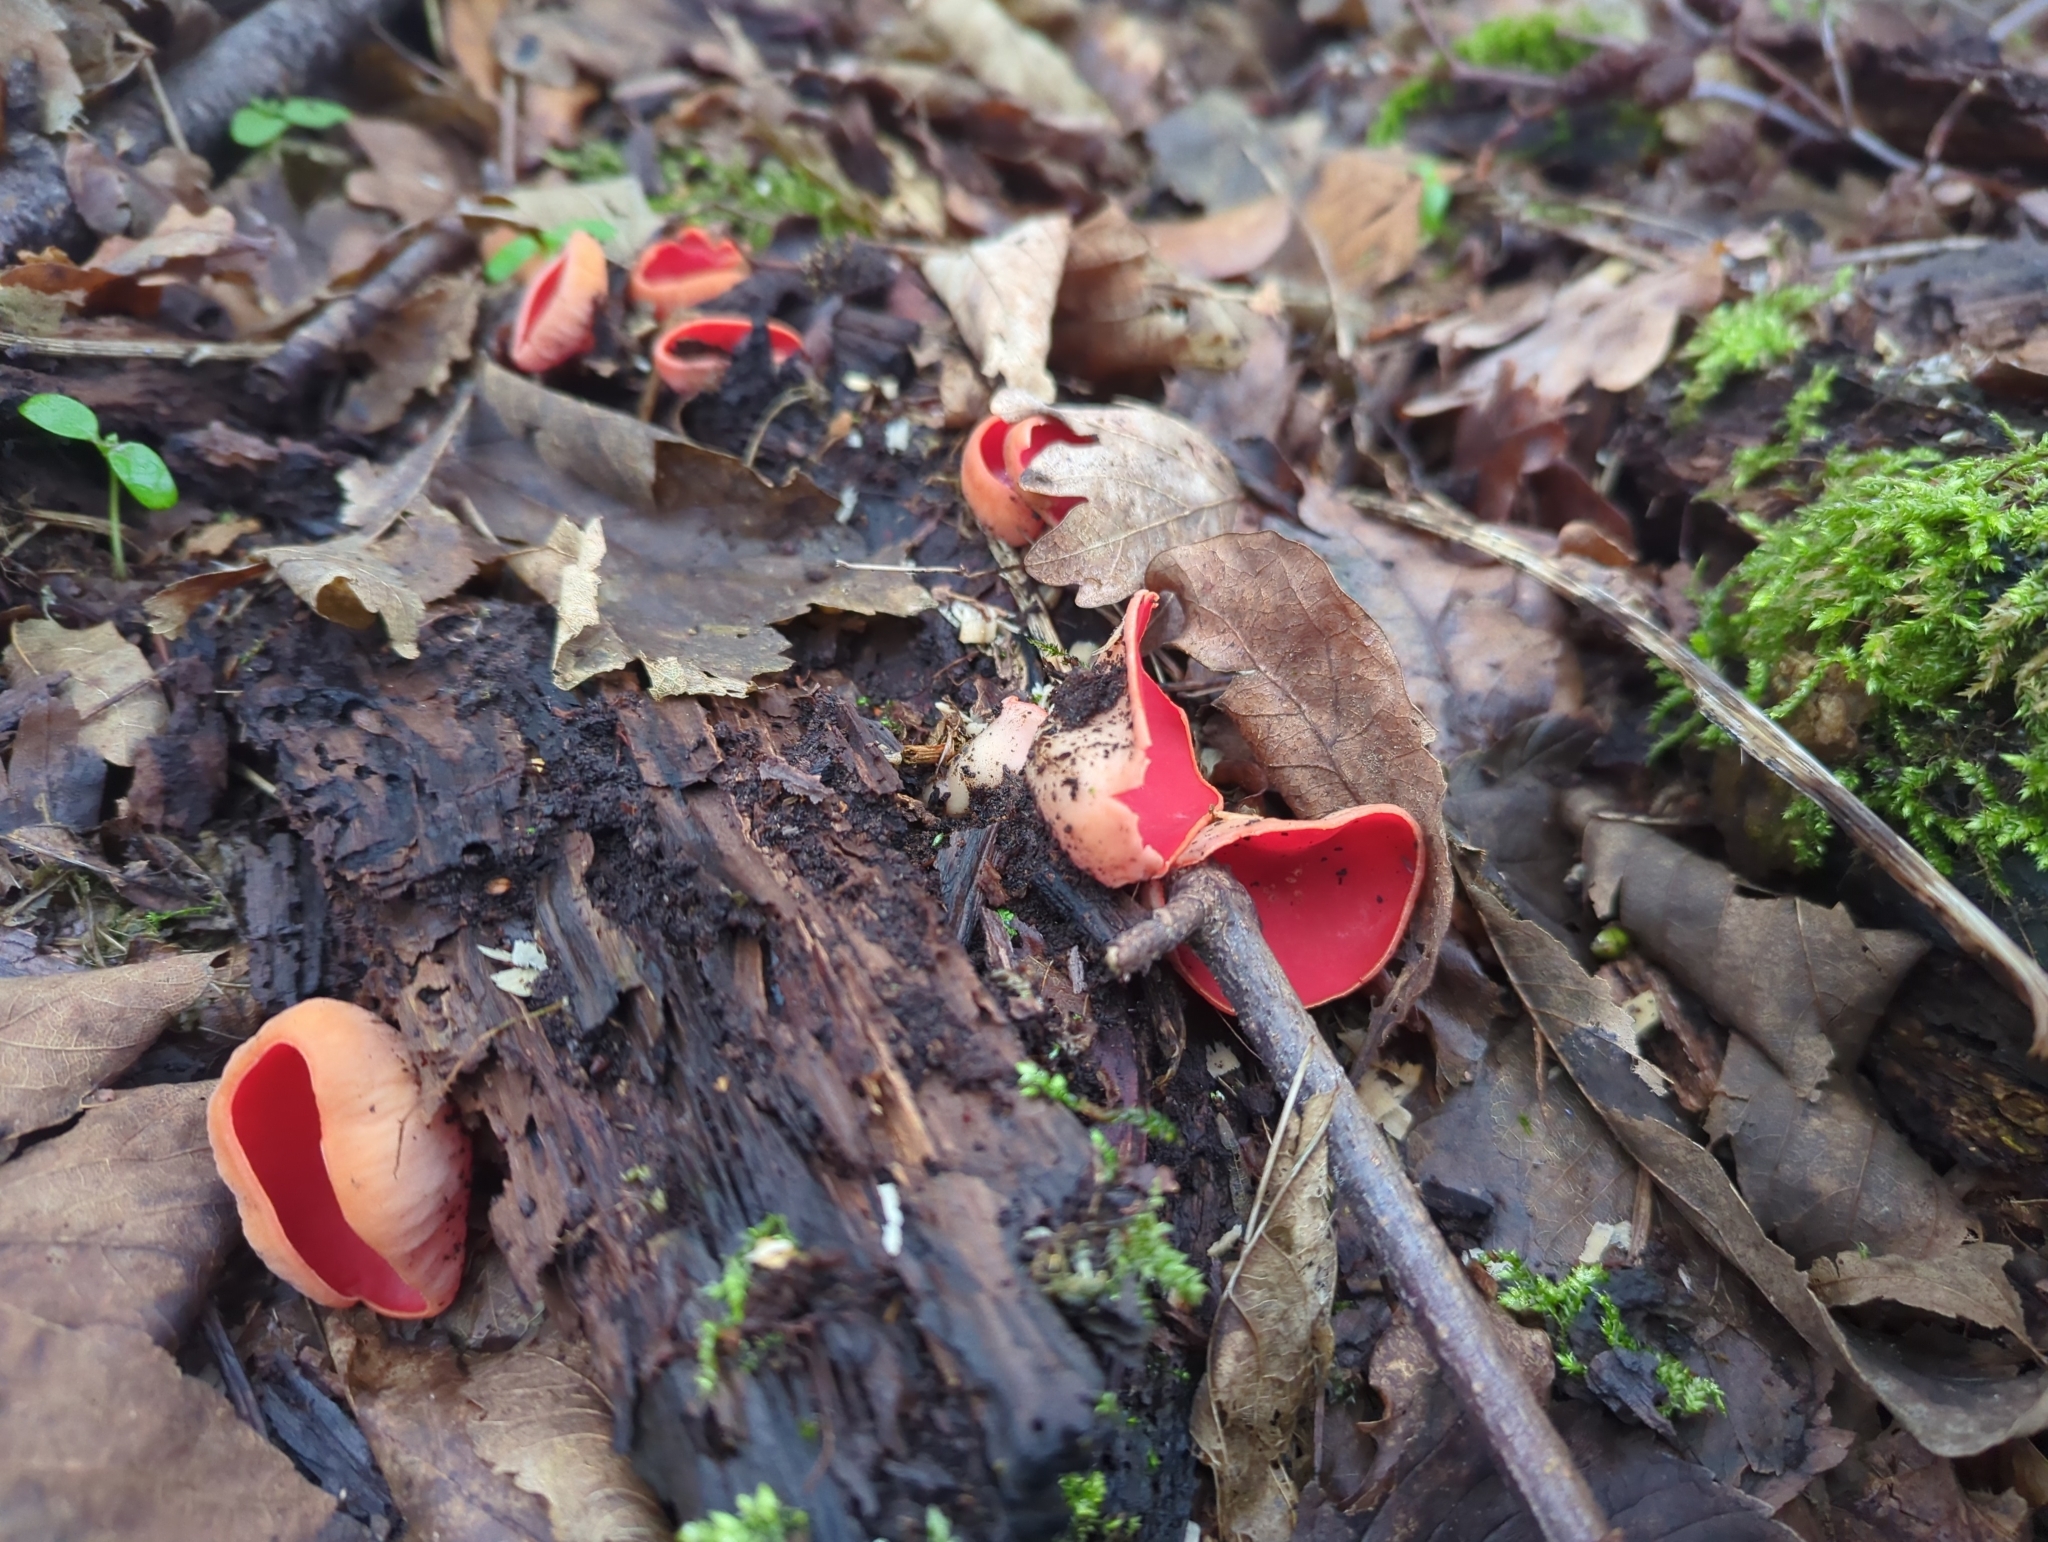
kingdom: Fungi
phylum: Ascomycota
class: Pezizomycetes
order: Pezizales
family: Sarcoscyphaceae
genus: Sarcoscypha
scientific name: Sarcoscypha
